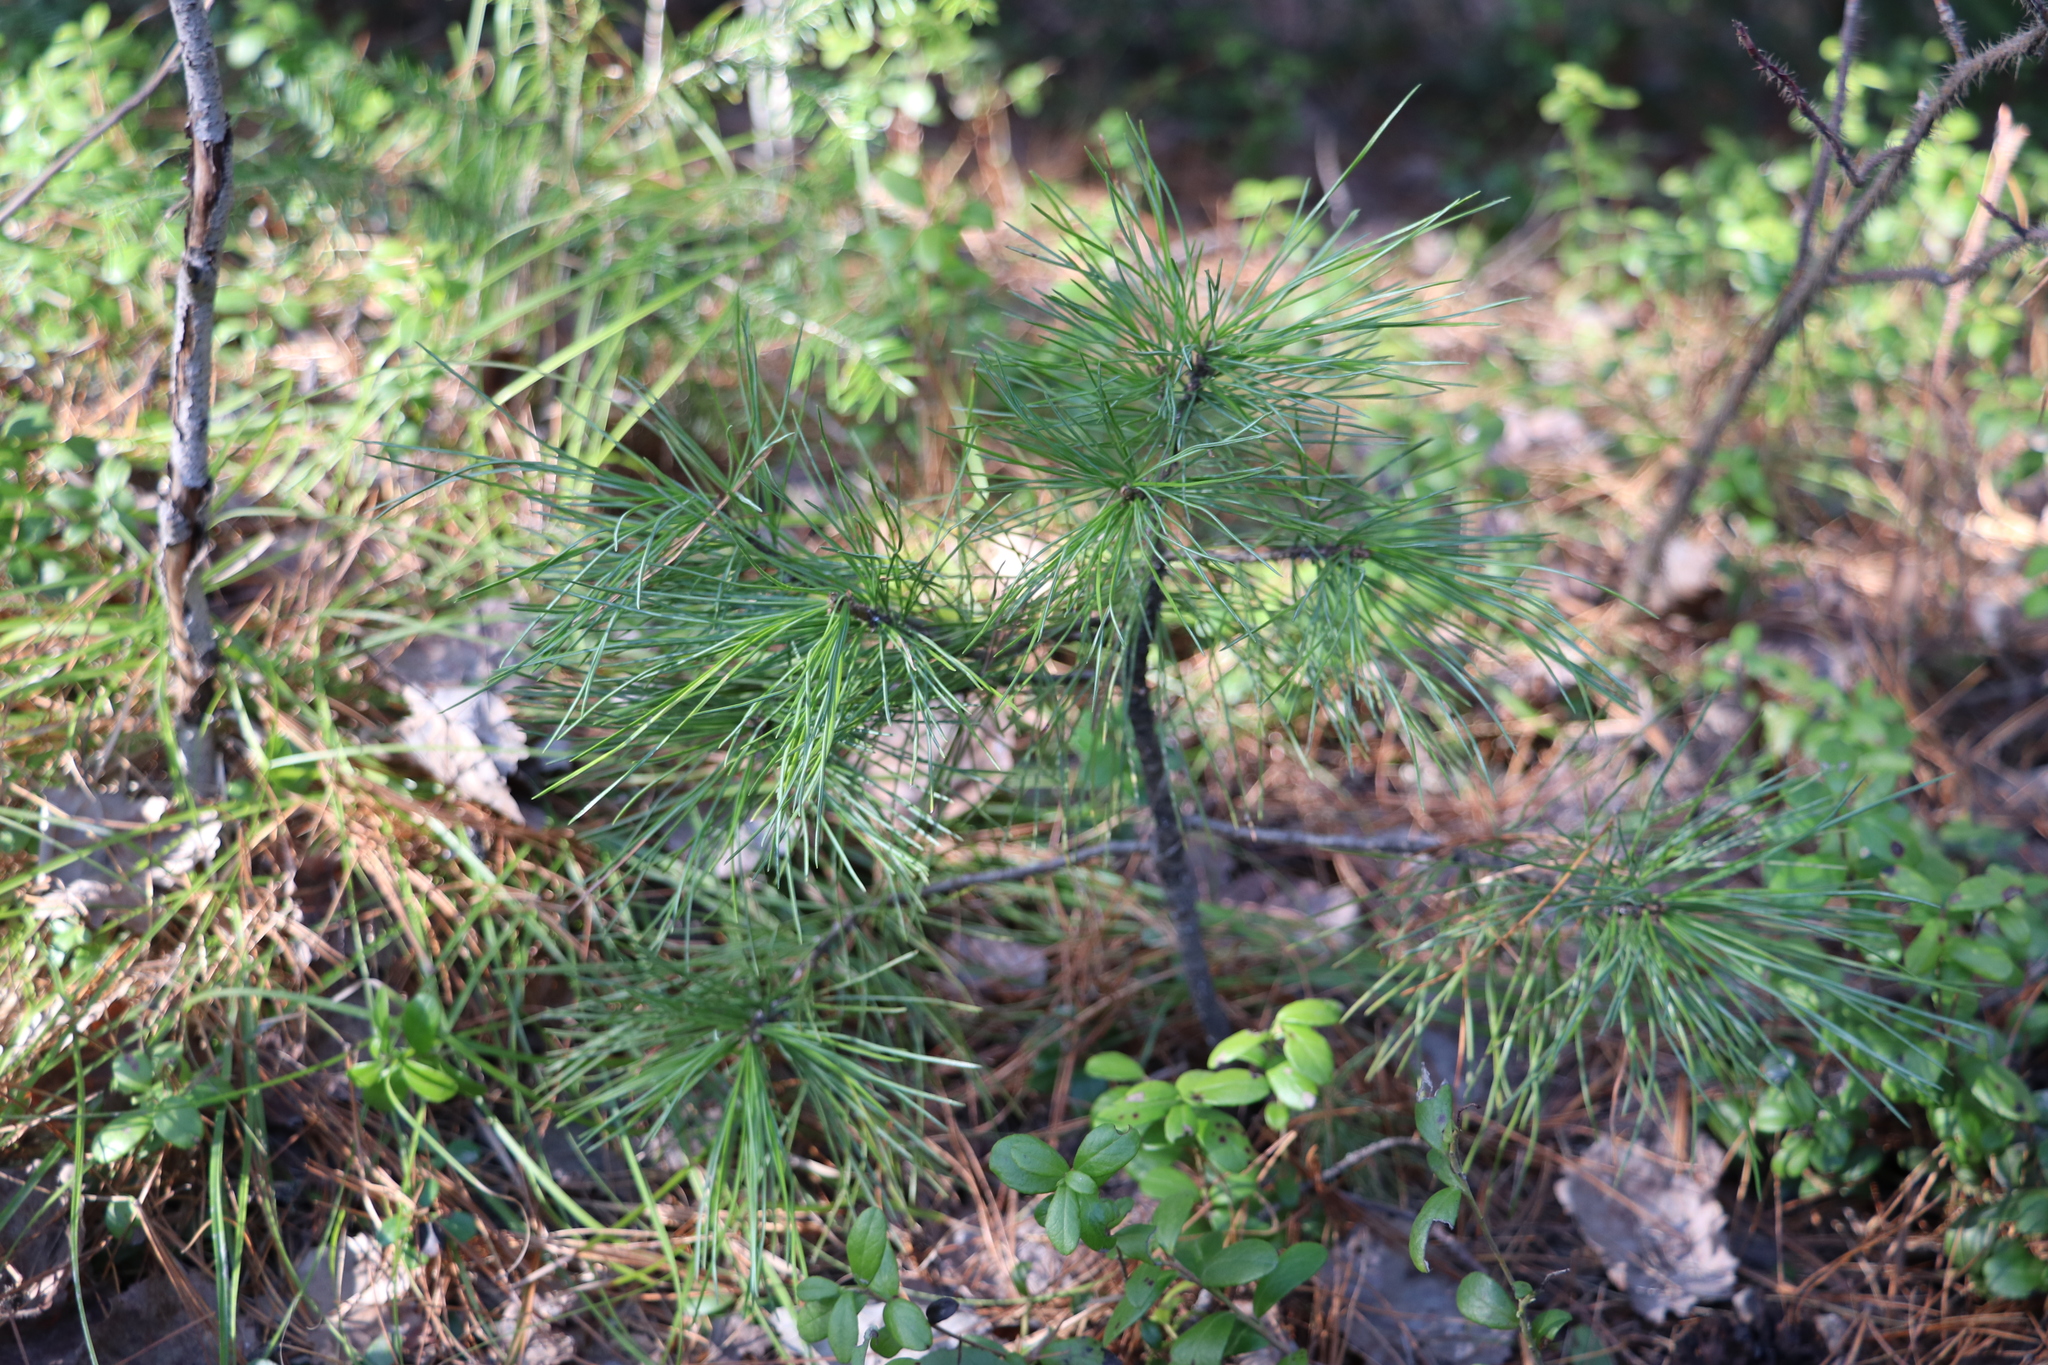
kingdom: Plantae
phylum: Tracheophyta
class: Pinopsida
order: Pinales
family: Pinaceae
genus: Pinus
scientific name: Pinus sibirica
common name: Siberian pine
